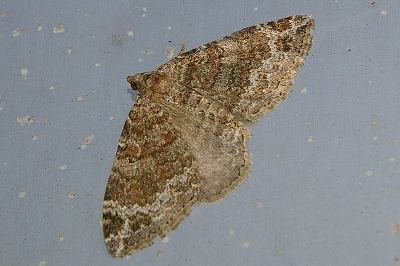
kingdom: Animalia
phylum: Arthropoda
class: Insecta
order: Lepidoptera
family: Geometridae
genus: Xanthorhoe
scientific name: Xanthorhoe saturata
